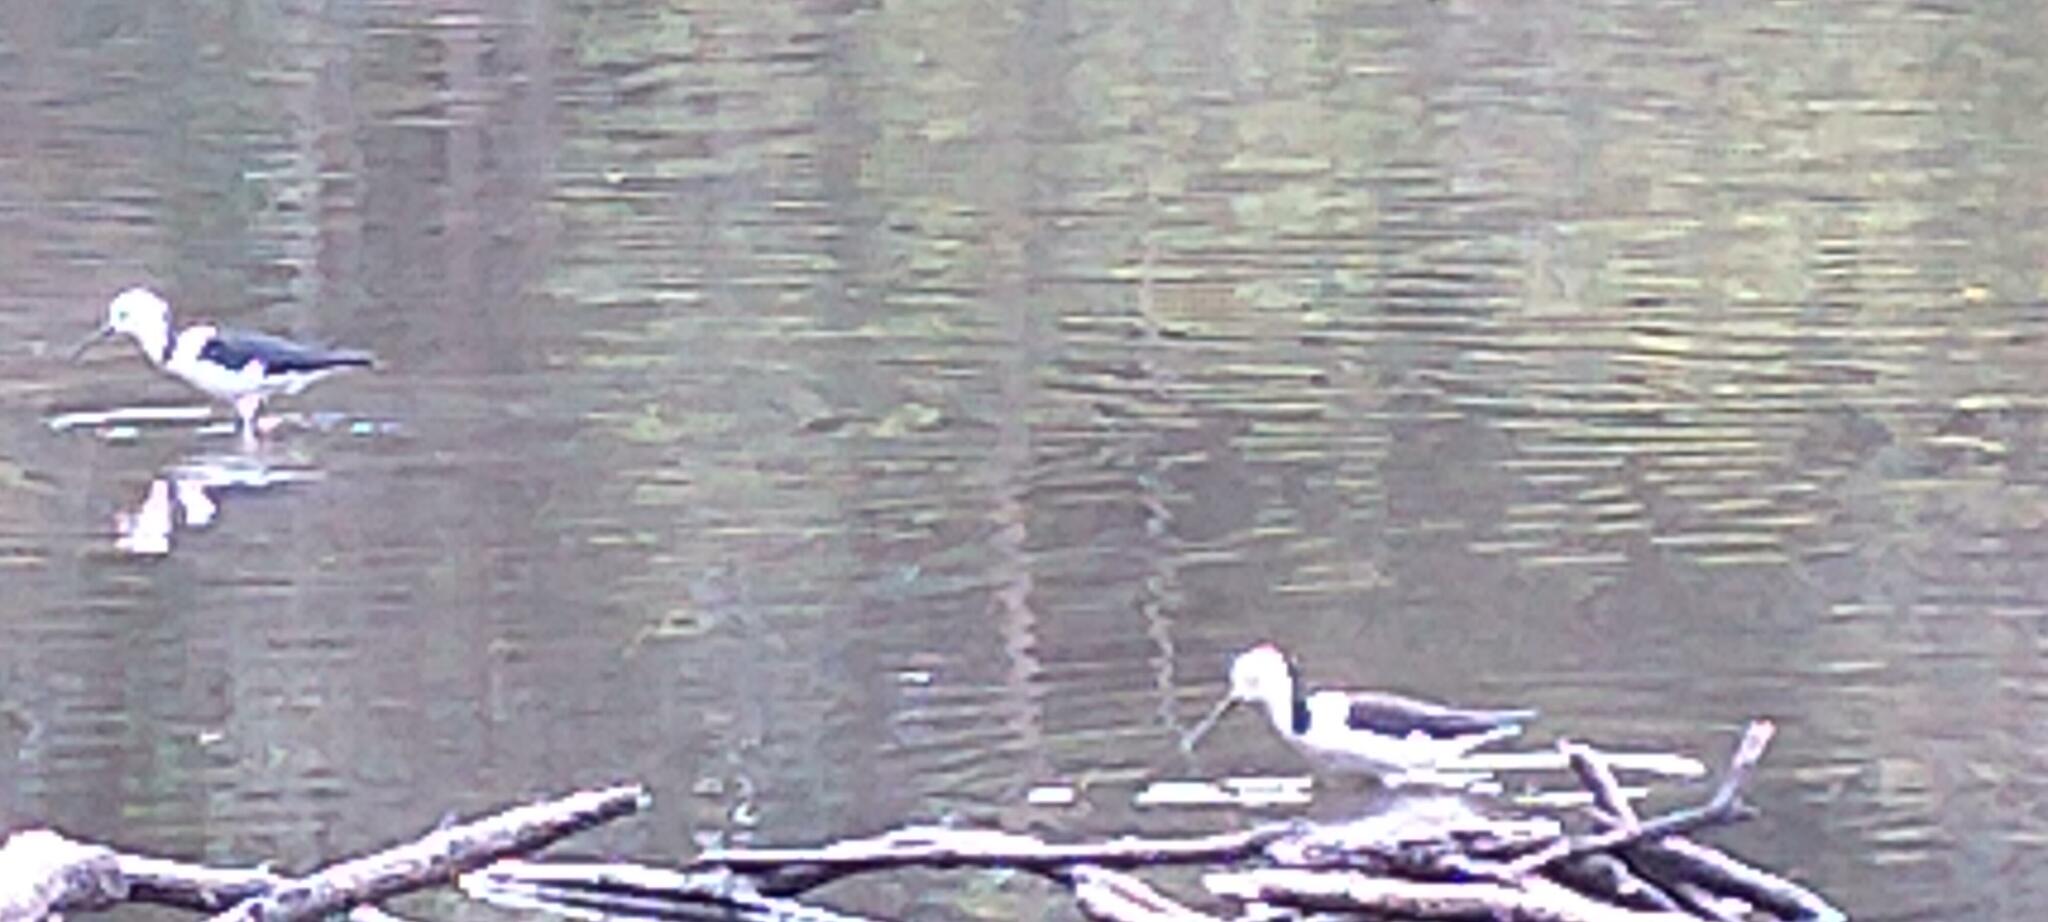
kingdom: Animalia
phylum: Chordata
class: Aves
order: Charadriiformes
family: Recurvirostridae
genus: Himantopus
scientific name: Himantopus leucocephalus
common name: White-headed stilt
